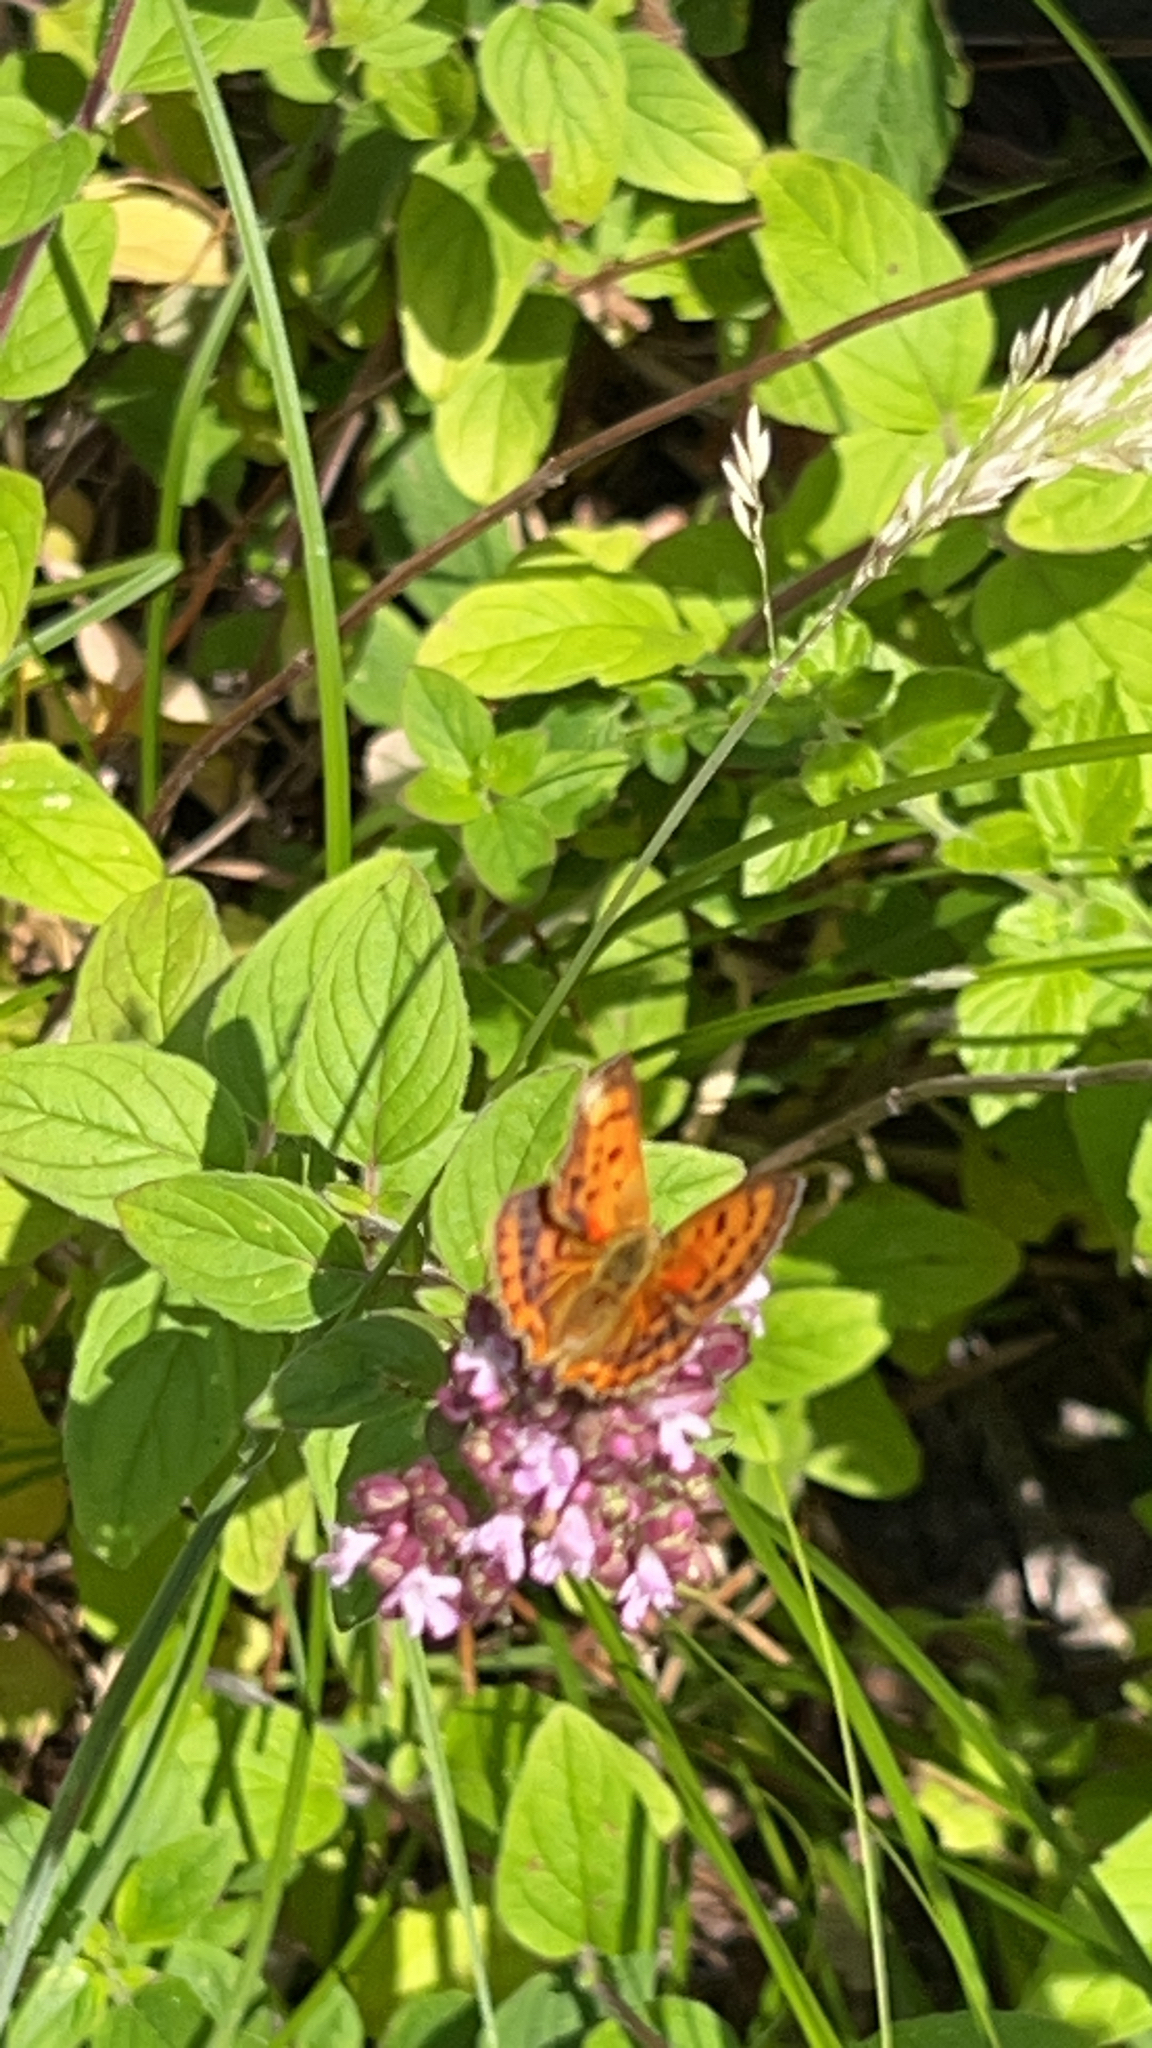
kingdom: Animalia
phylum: Arthropoda
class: Insecta
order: Lepidoptera
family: Lycaenidae
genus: Lycaena
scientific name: Lycaena virgaureae
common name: Scarce copper
